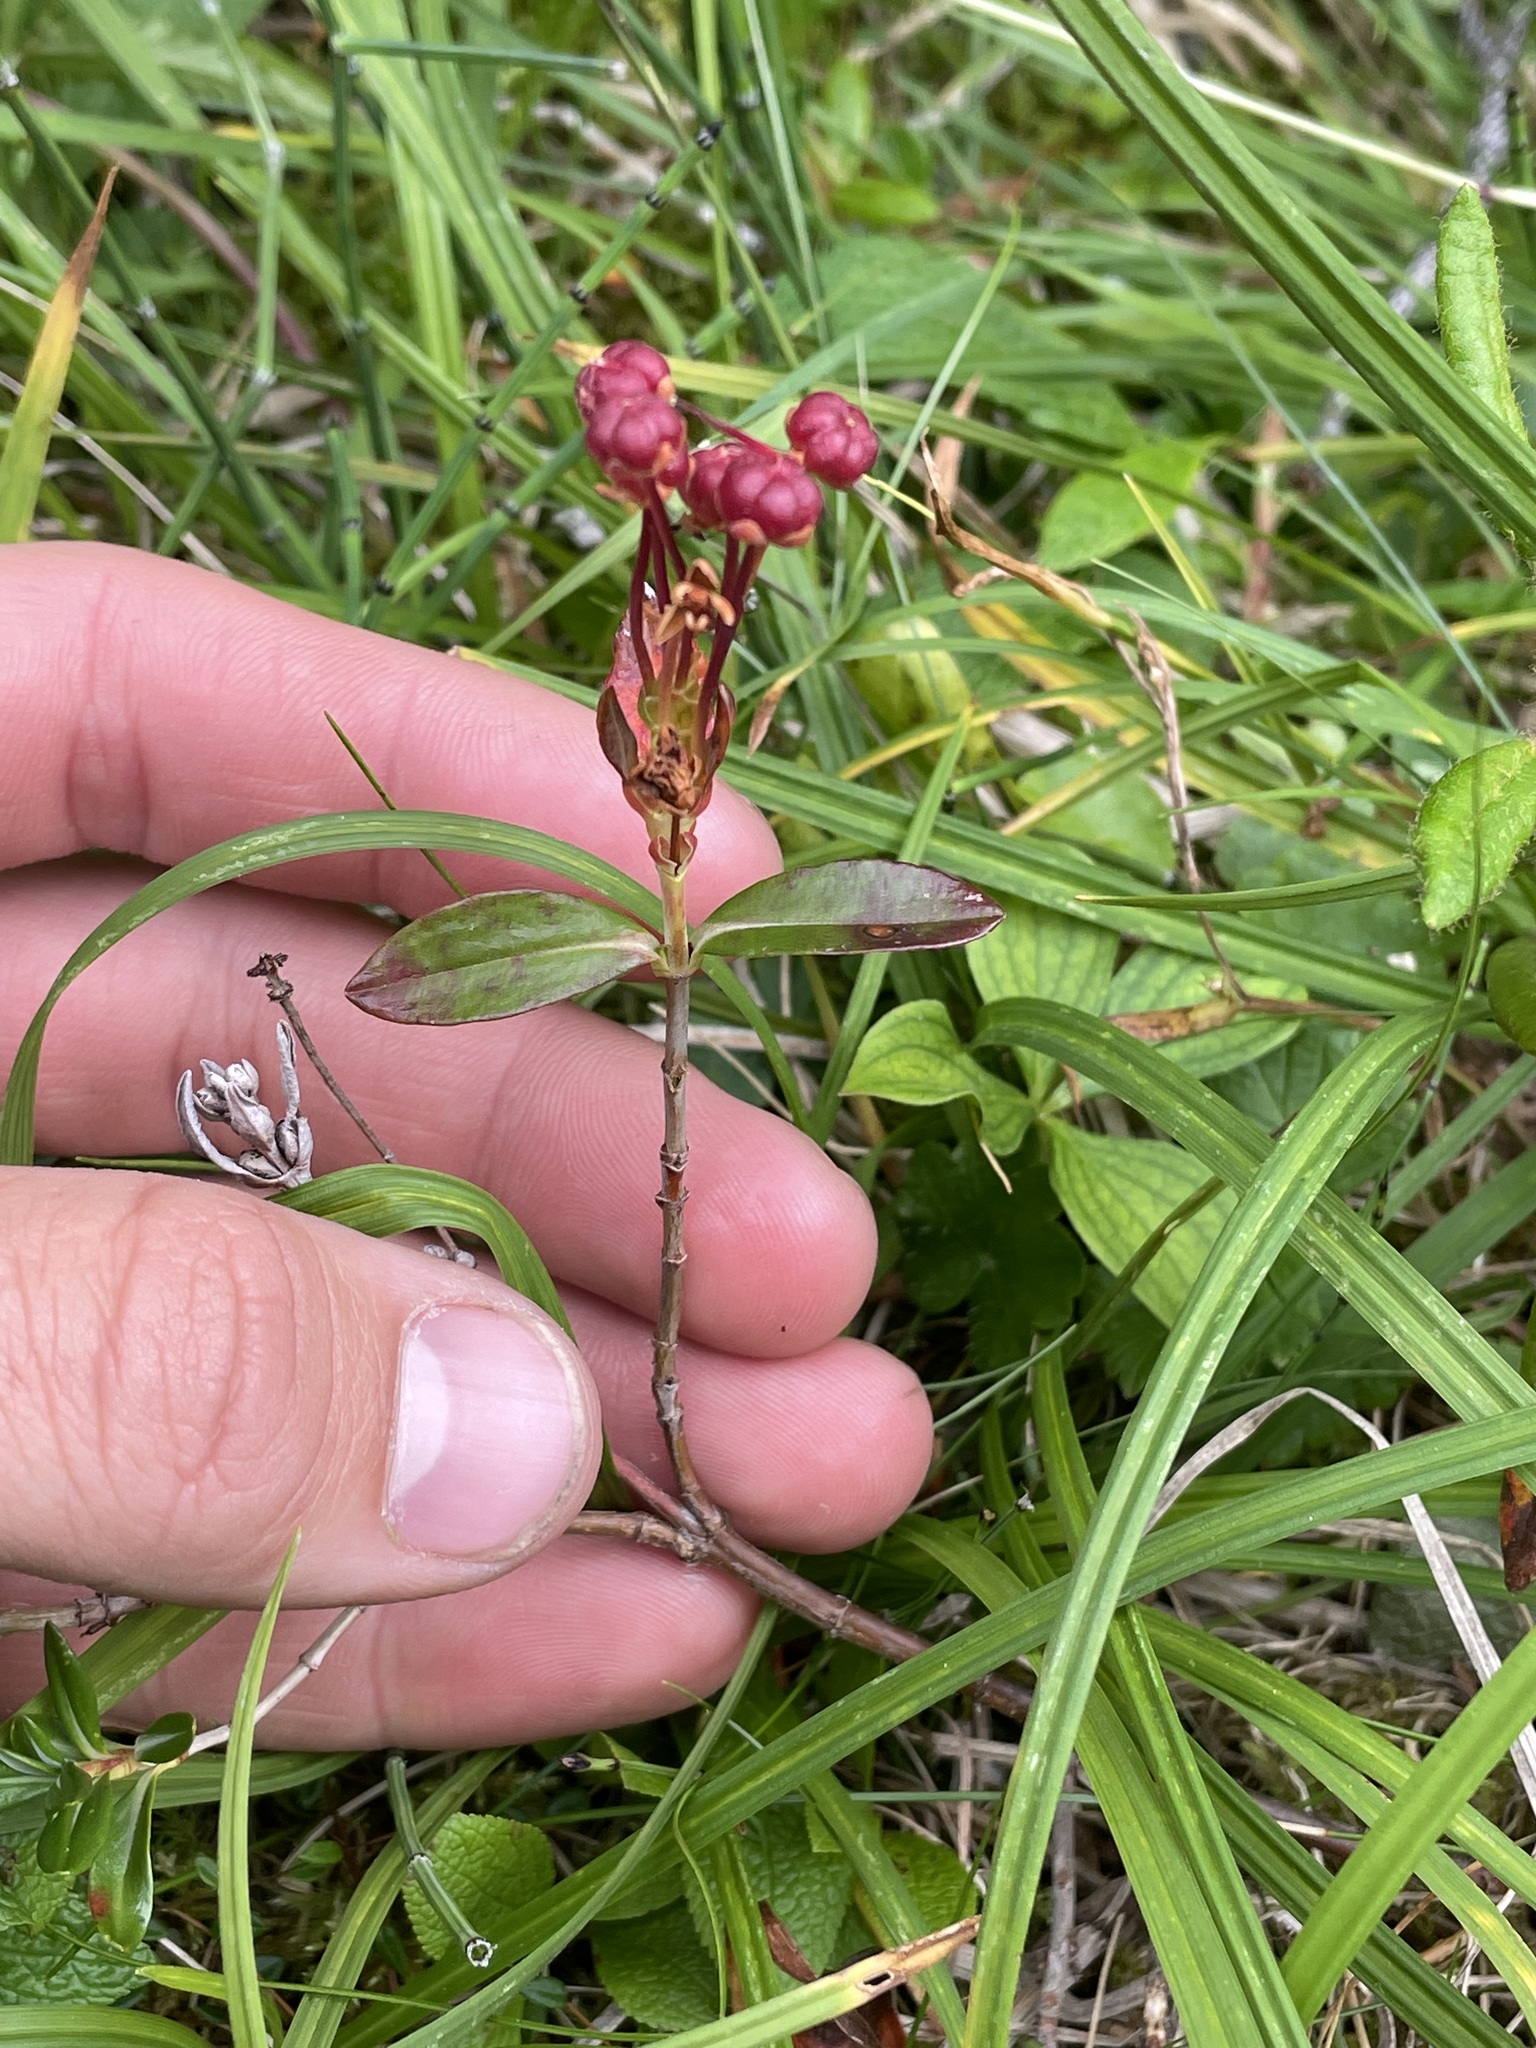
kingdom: Plantae
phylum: Tracheophyta
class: Magnoliopsida
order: Ericales
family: Ericaceae
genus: Kalmia
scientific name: Kalmia microphylla
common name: Alpine bog laurel
